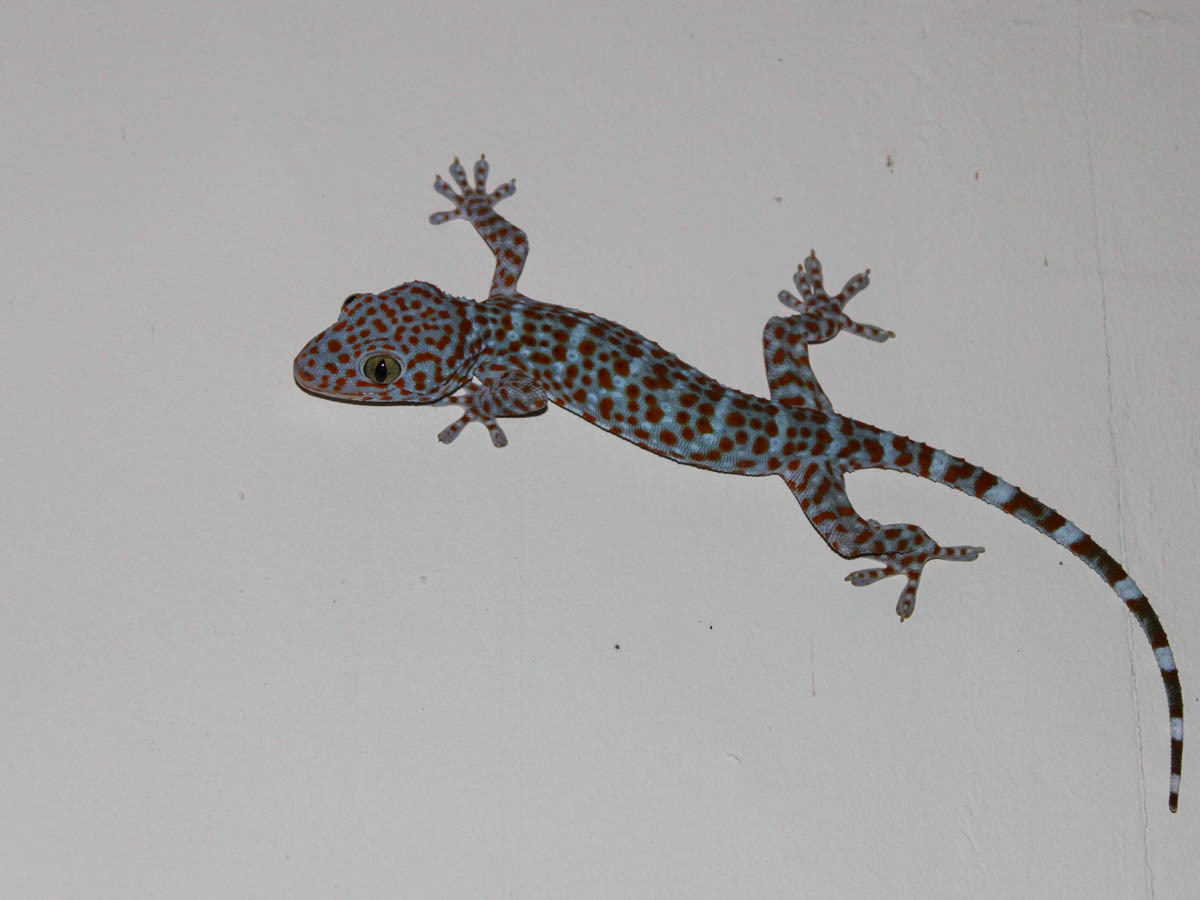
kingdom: Animalia
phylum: Chordata
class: Squamata
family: Gekkonidae
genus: Gekko
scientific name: Gekko gecko
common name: Tokay gecko
